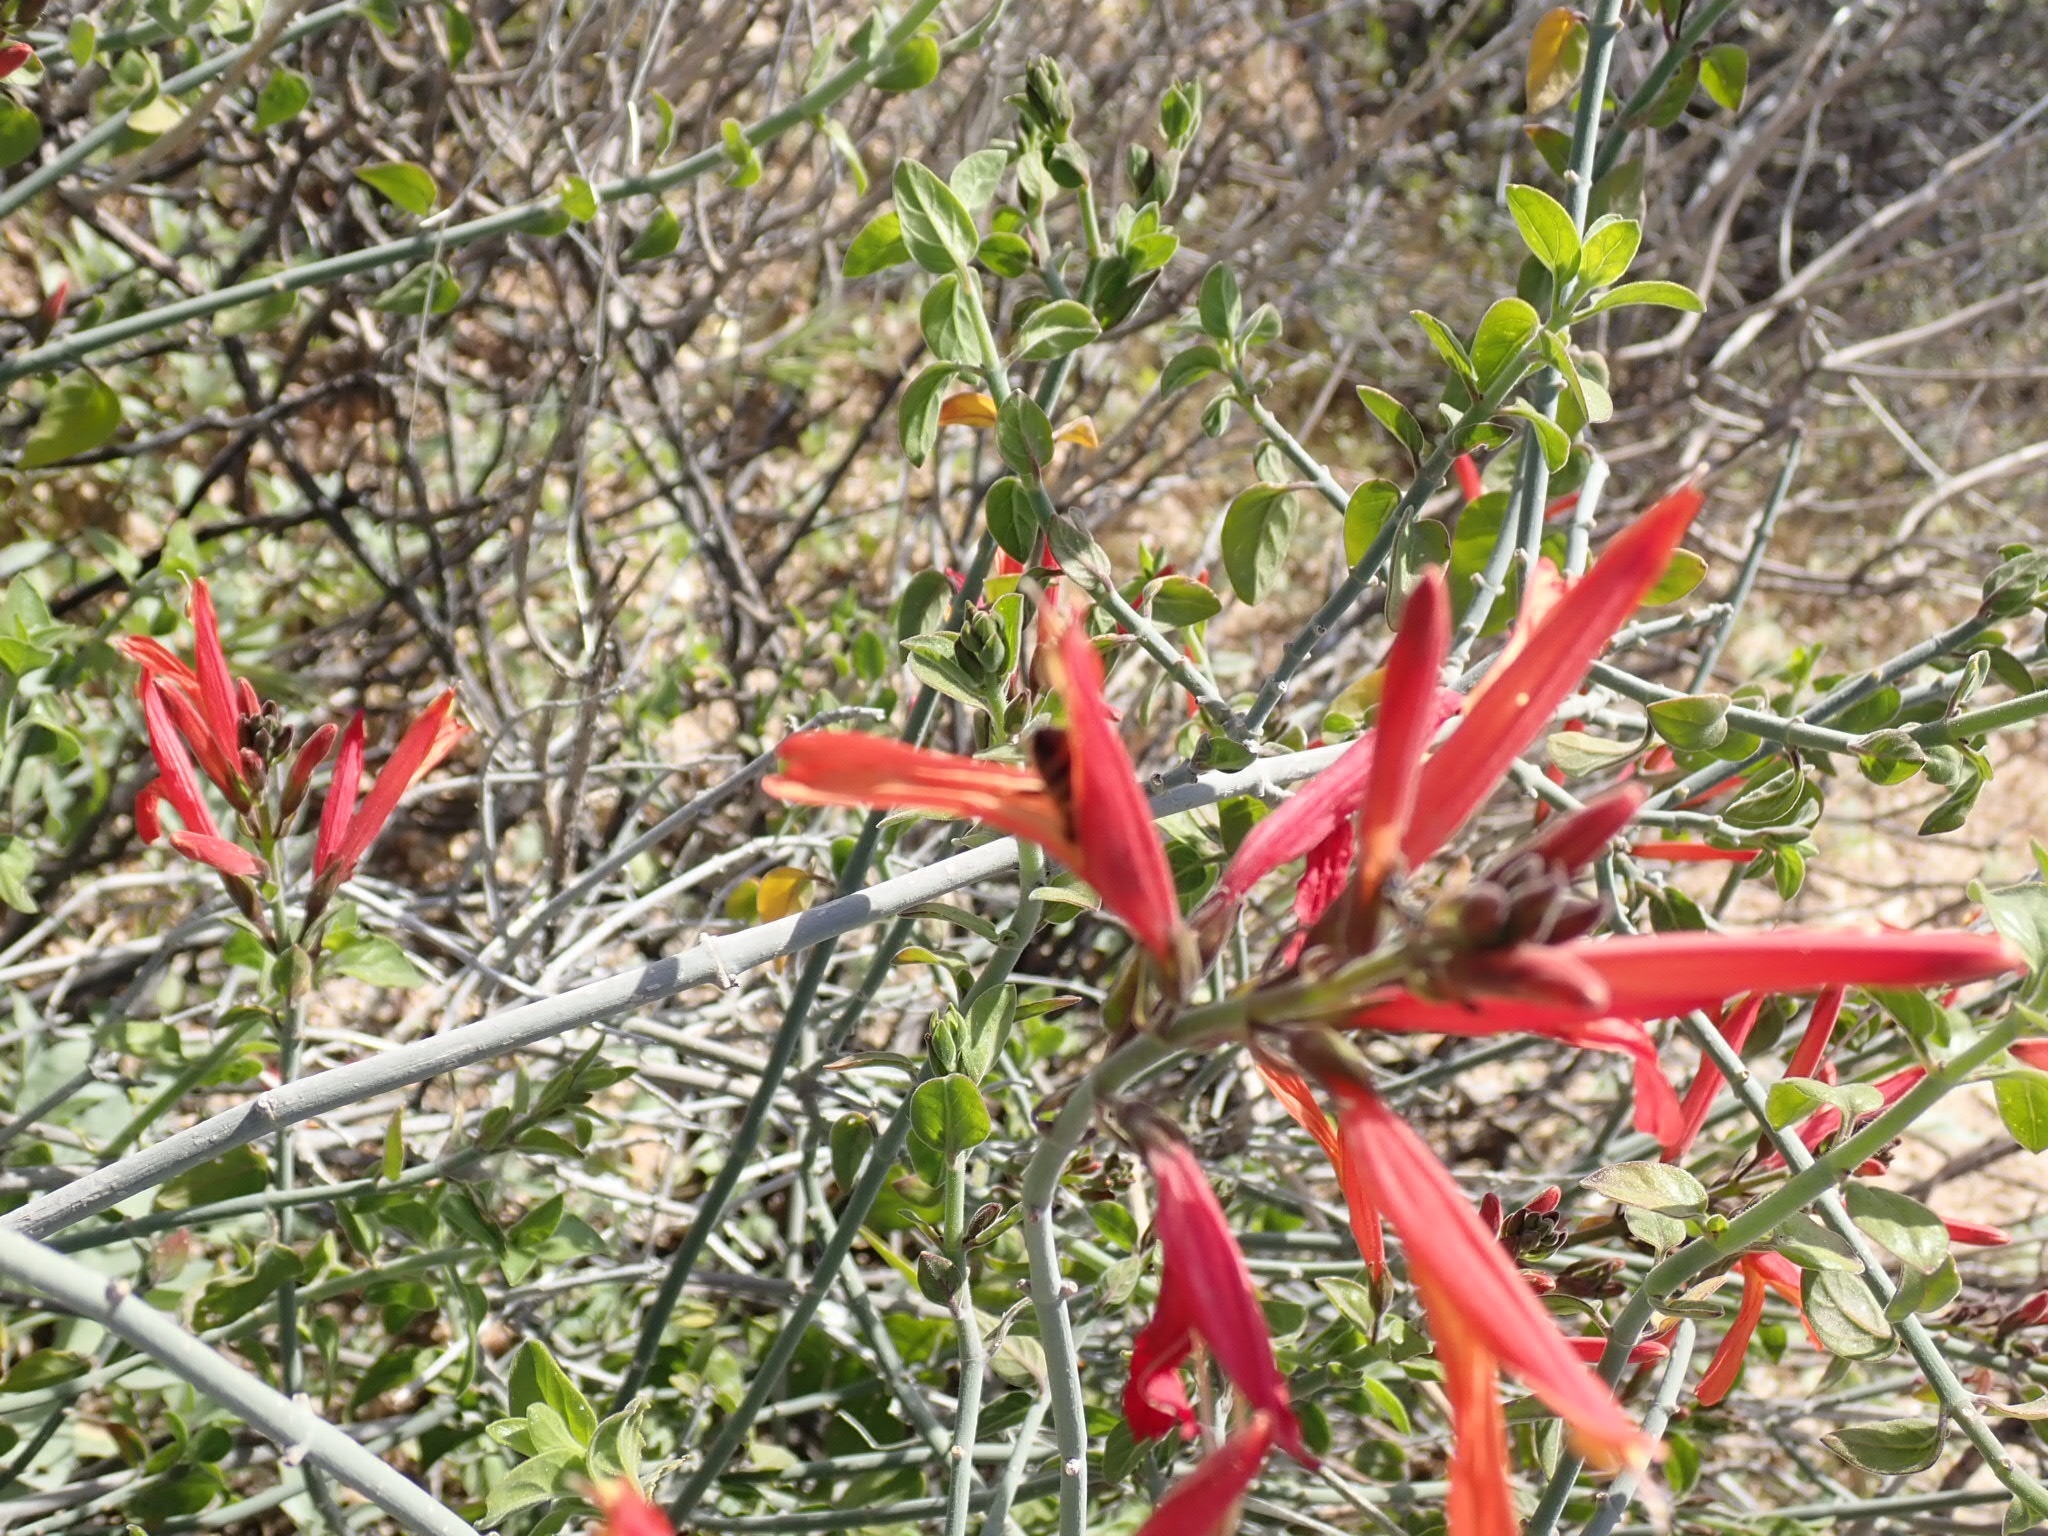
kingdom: Plantae
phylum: Tracheophyta
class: Magnoliopsida
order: Lamiales
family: Acanthaceae
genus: Justicia
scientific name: Justicia californica
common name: Chuparosa-honeysuckle
